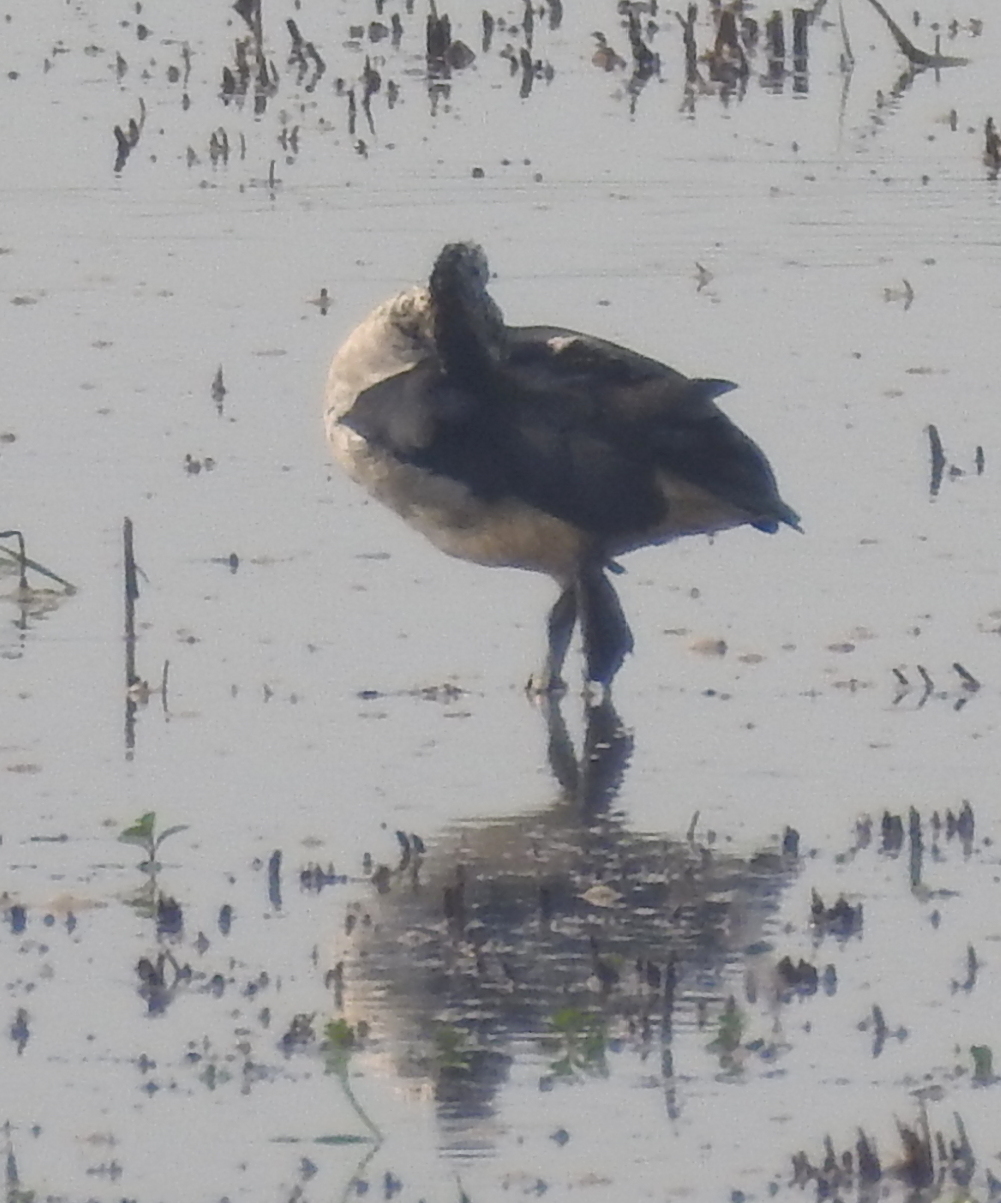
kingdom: Animalia
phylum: Chordata
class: Aves
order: Anseriformes
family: Anatidae
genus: Sarkidiornis
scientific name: Sarkidiornis melanotos
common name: Comb duck
